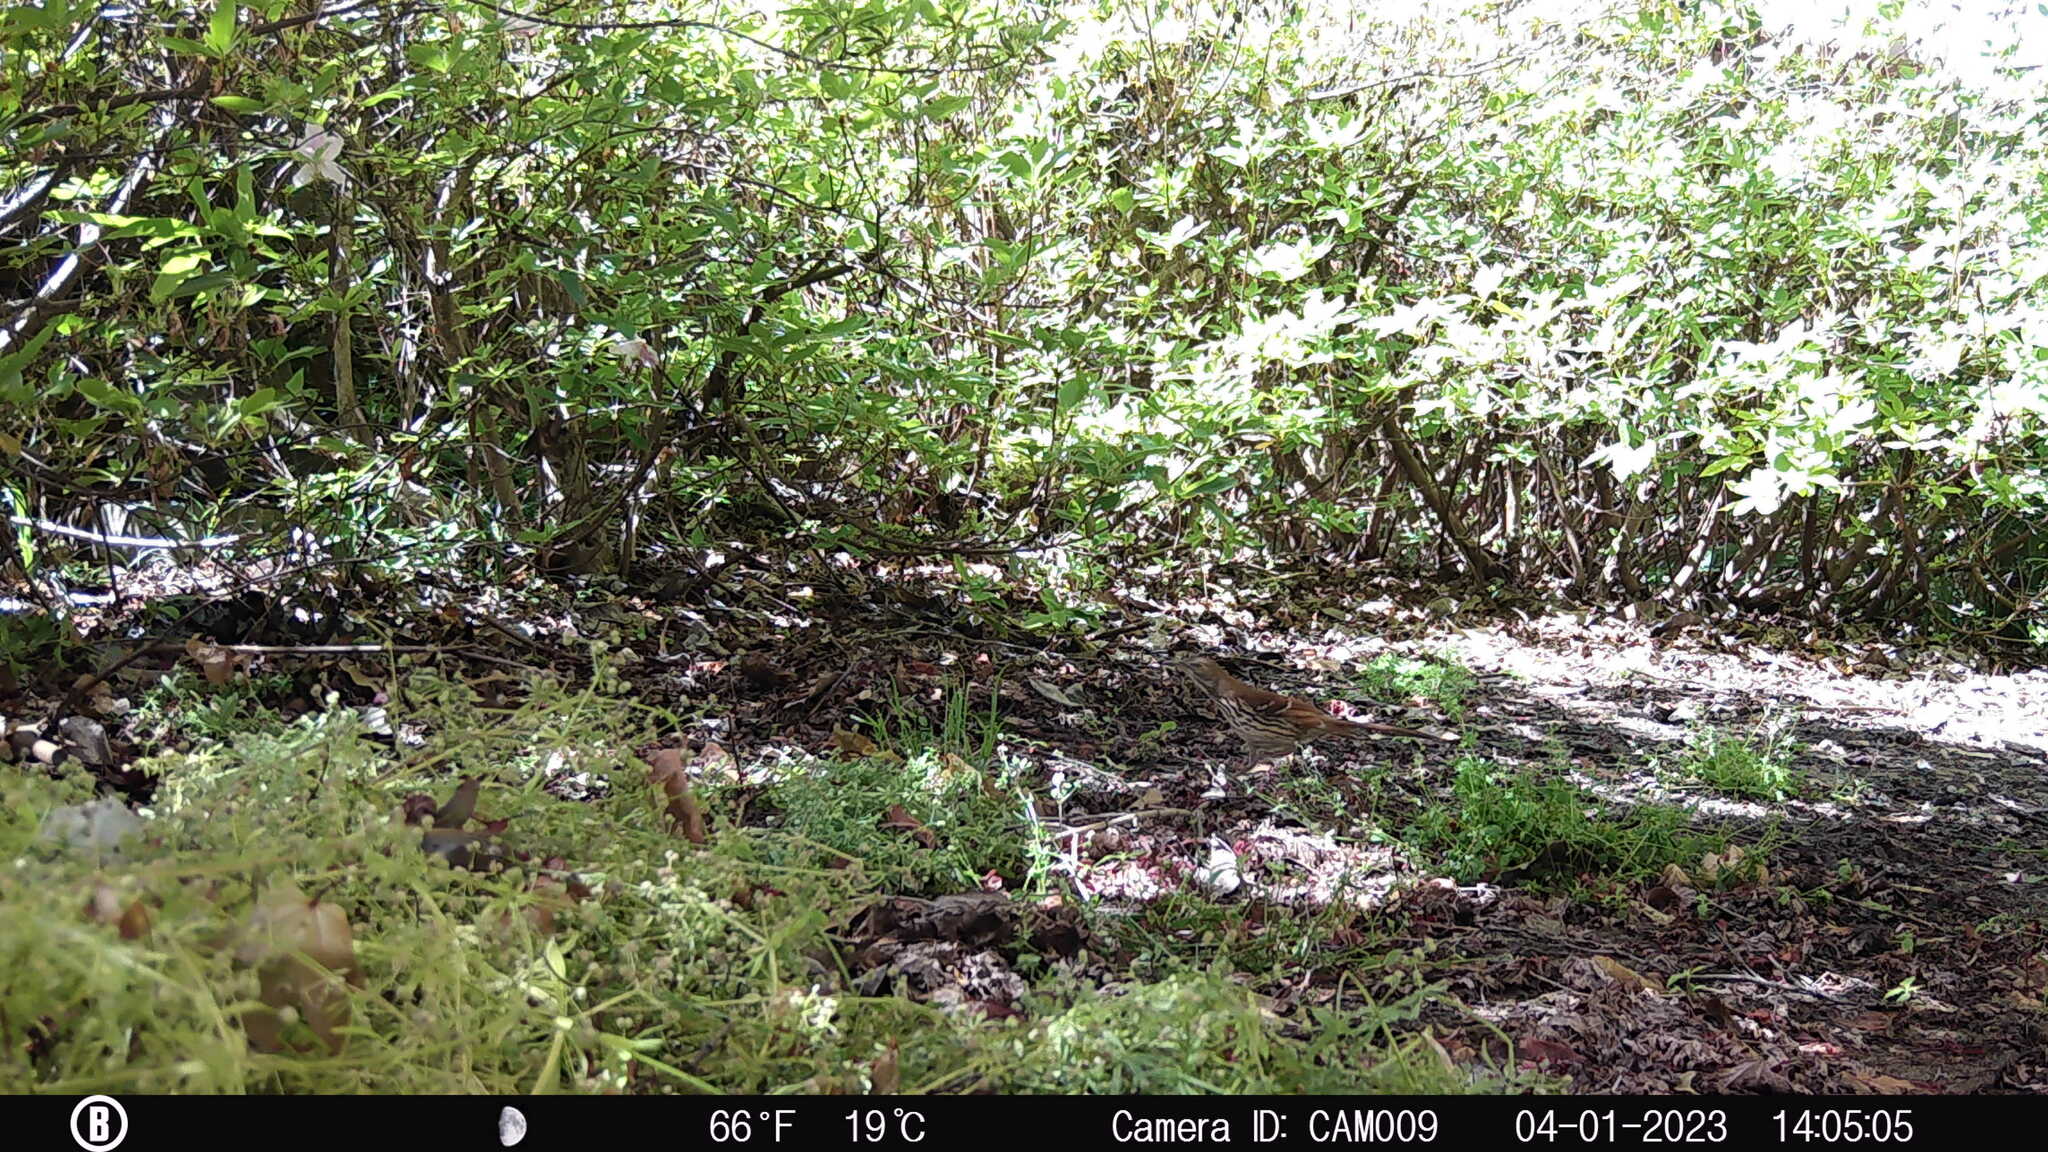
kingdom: Animalia
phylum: Chordata
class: Aves
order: Passeriformes
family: Mimidae
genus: Toxostoma
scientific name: Toxostoma rufum
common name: Brown thrasher
